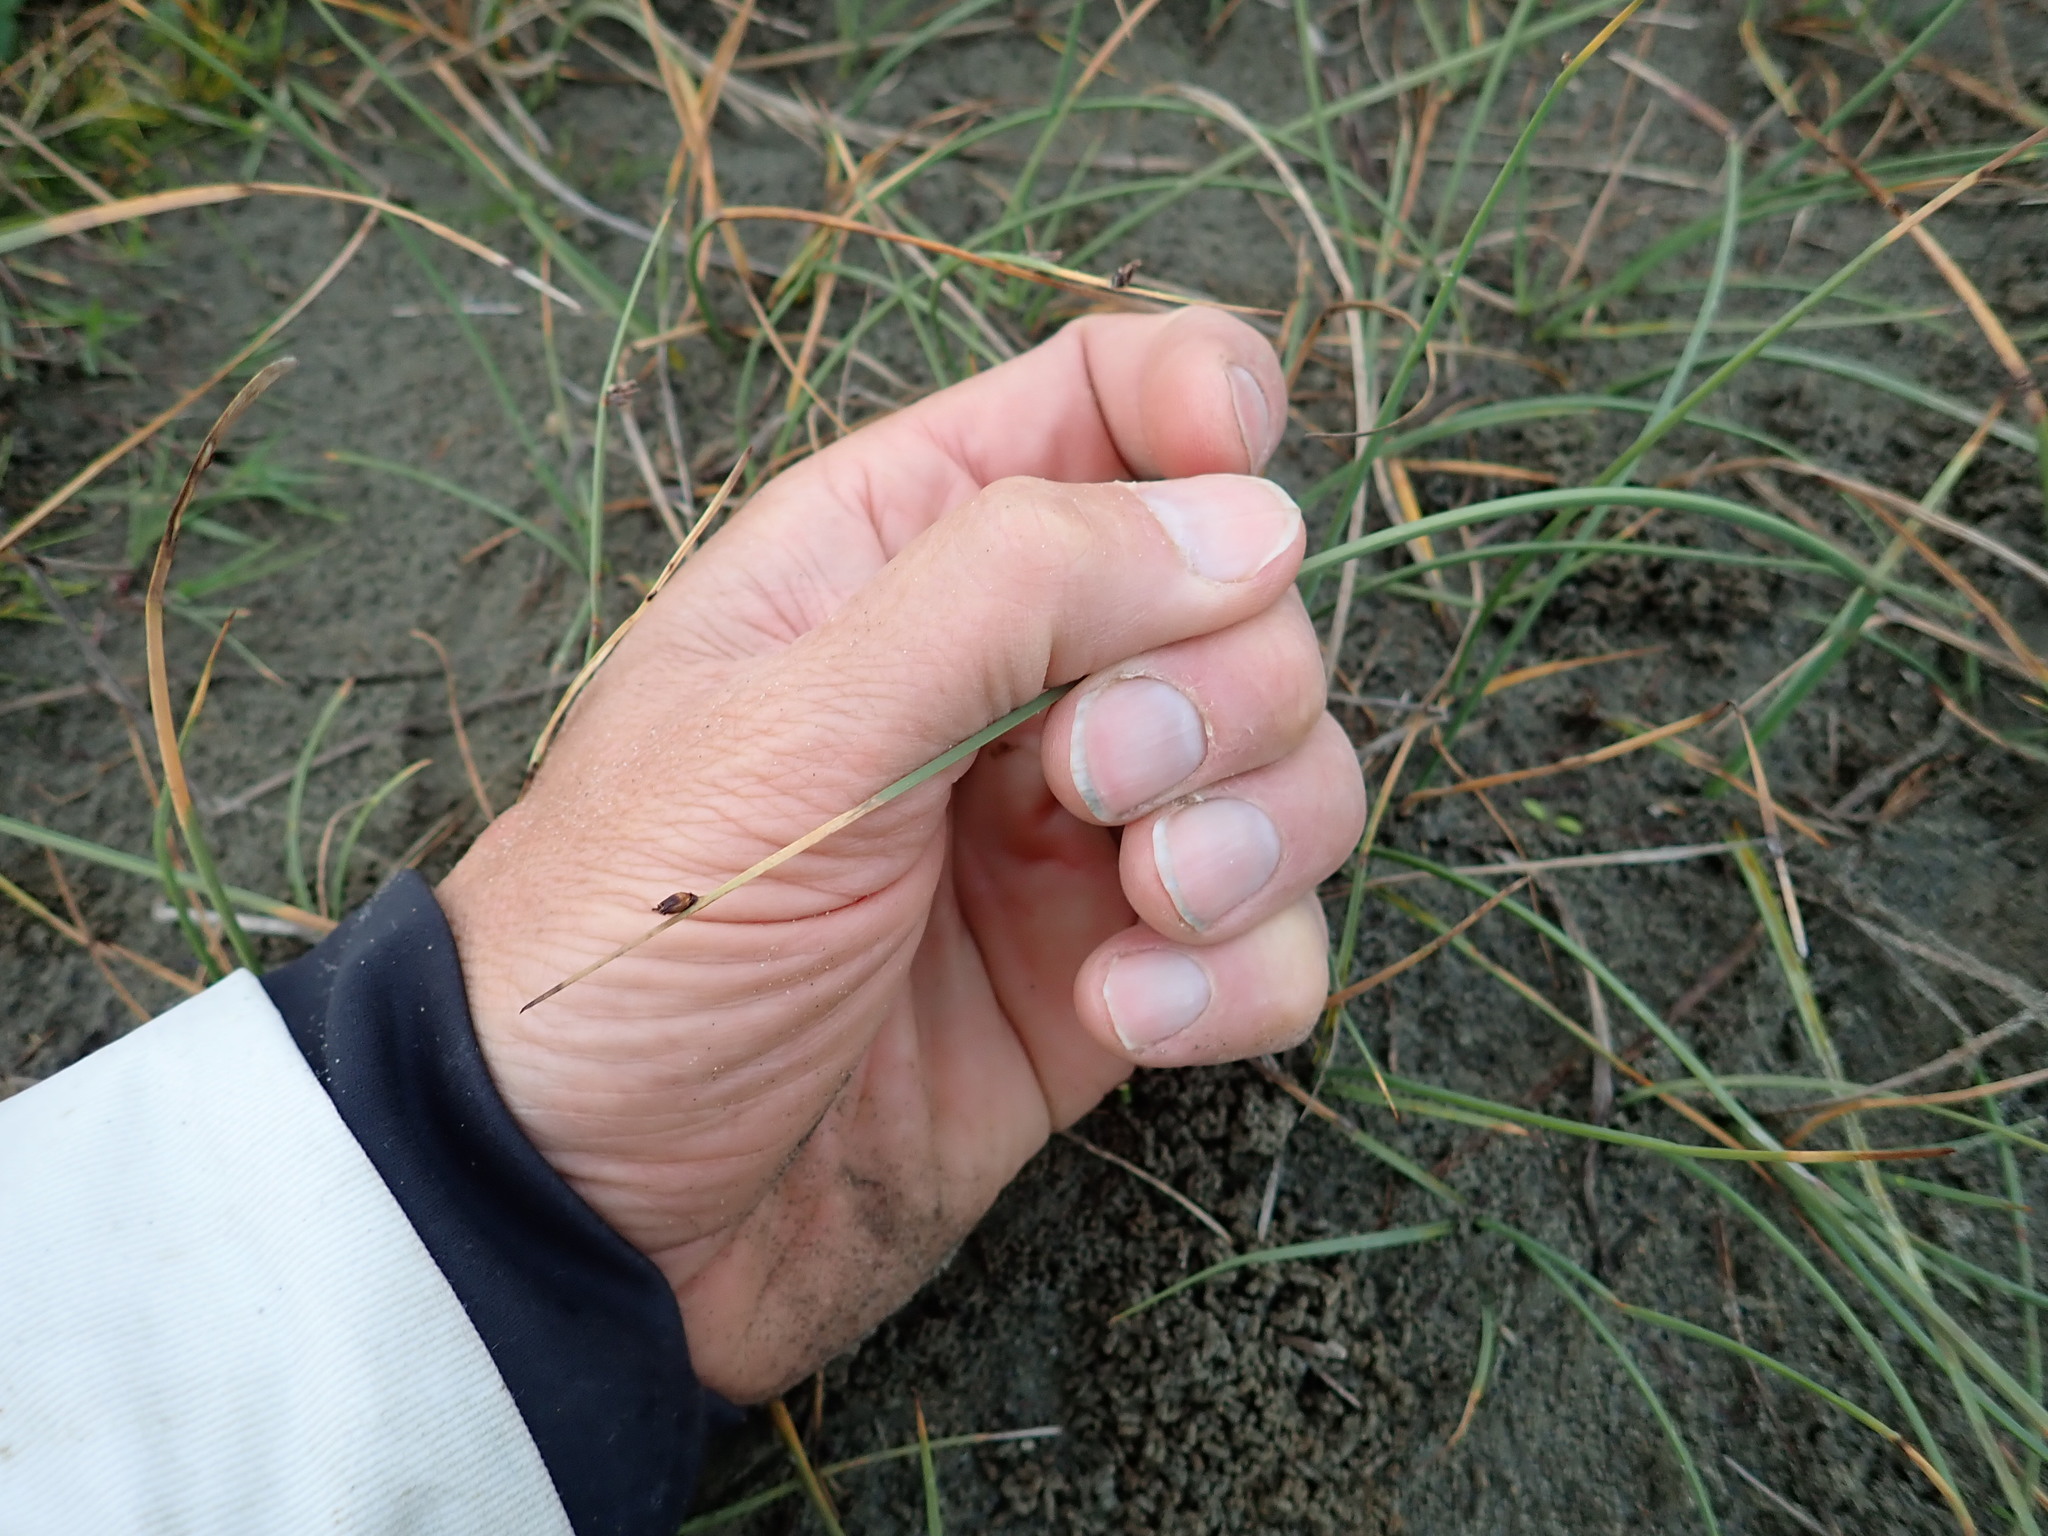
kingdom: Plantae
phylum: Tracheophyta
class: Liliopsida
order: Poales
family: Cyperaceae
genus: Schoenoplectus
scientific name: Schoenoplectus pungens
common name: Sharp club-rush
